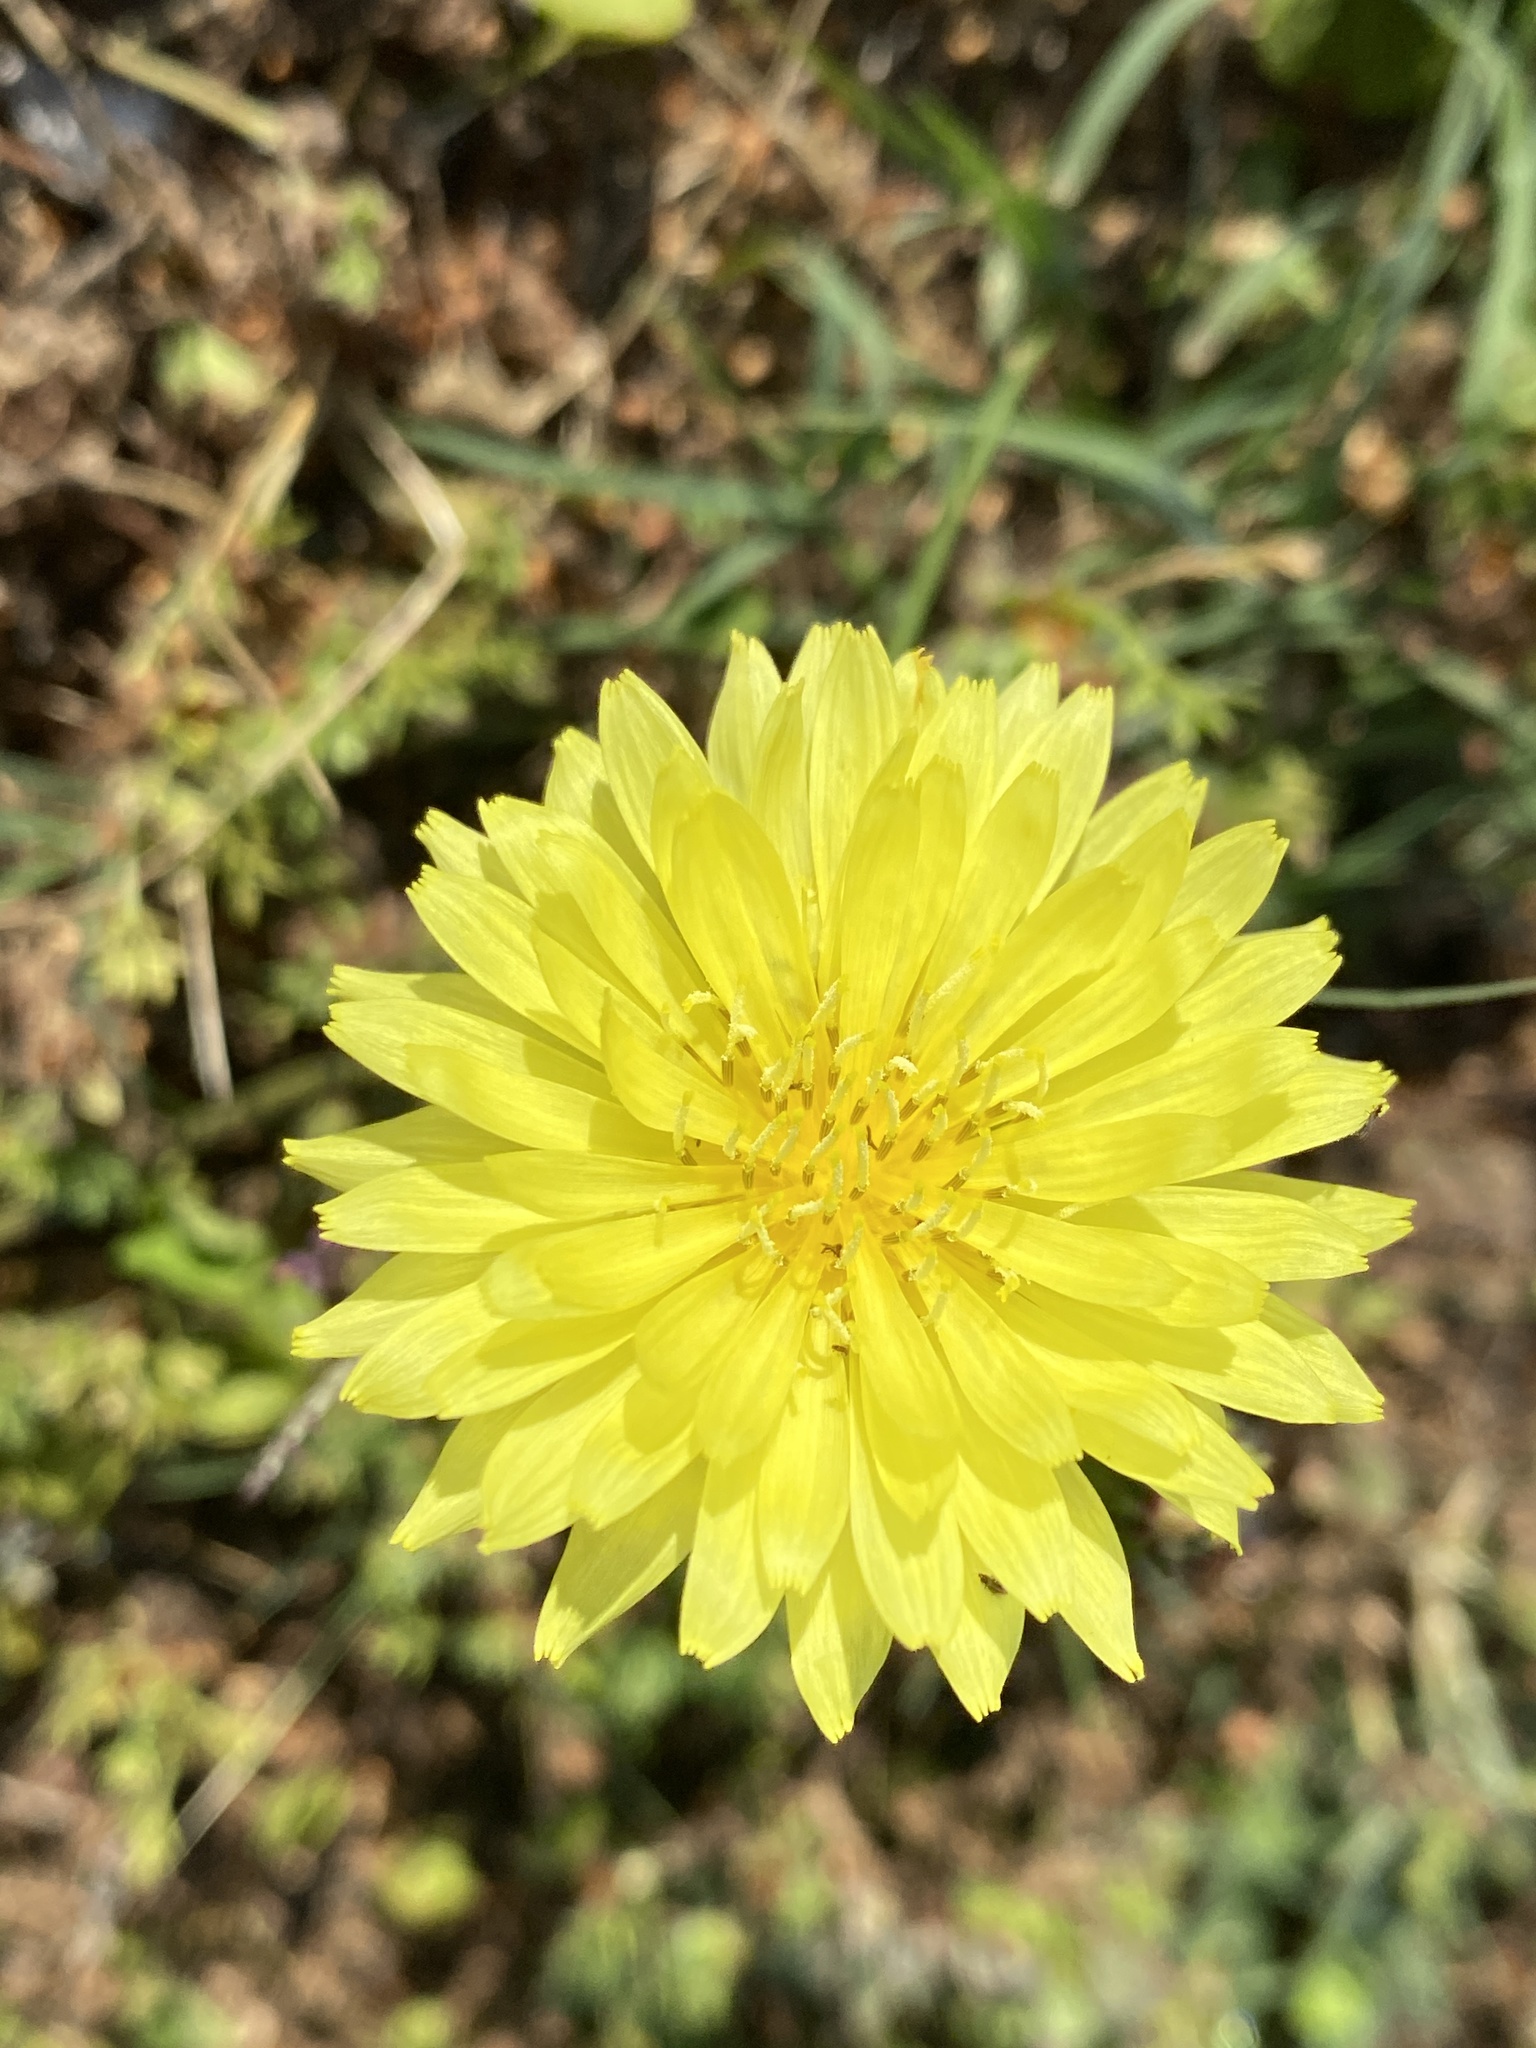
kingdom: Plantae
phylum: Tracheophyta
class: Magnoliopsida
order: Asterales
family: Asteraceae
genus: Pyrrhopappus
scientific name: Pyrrhopappus carolinianus
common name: Carolina desert-chicory
